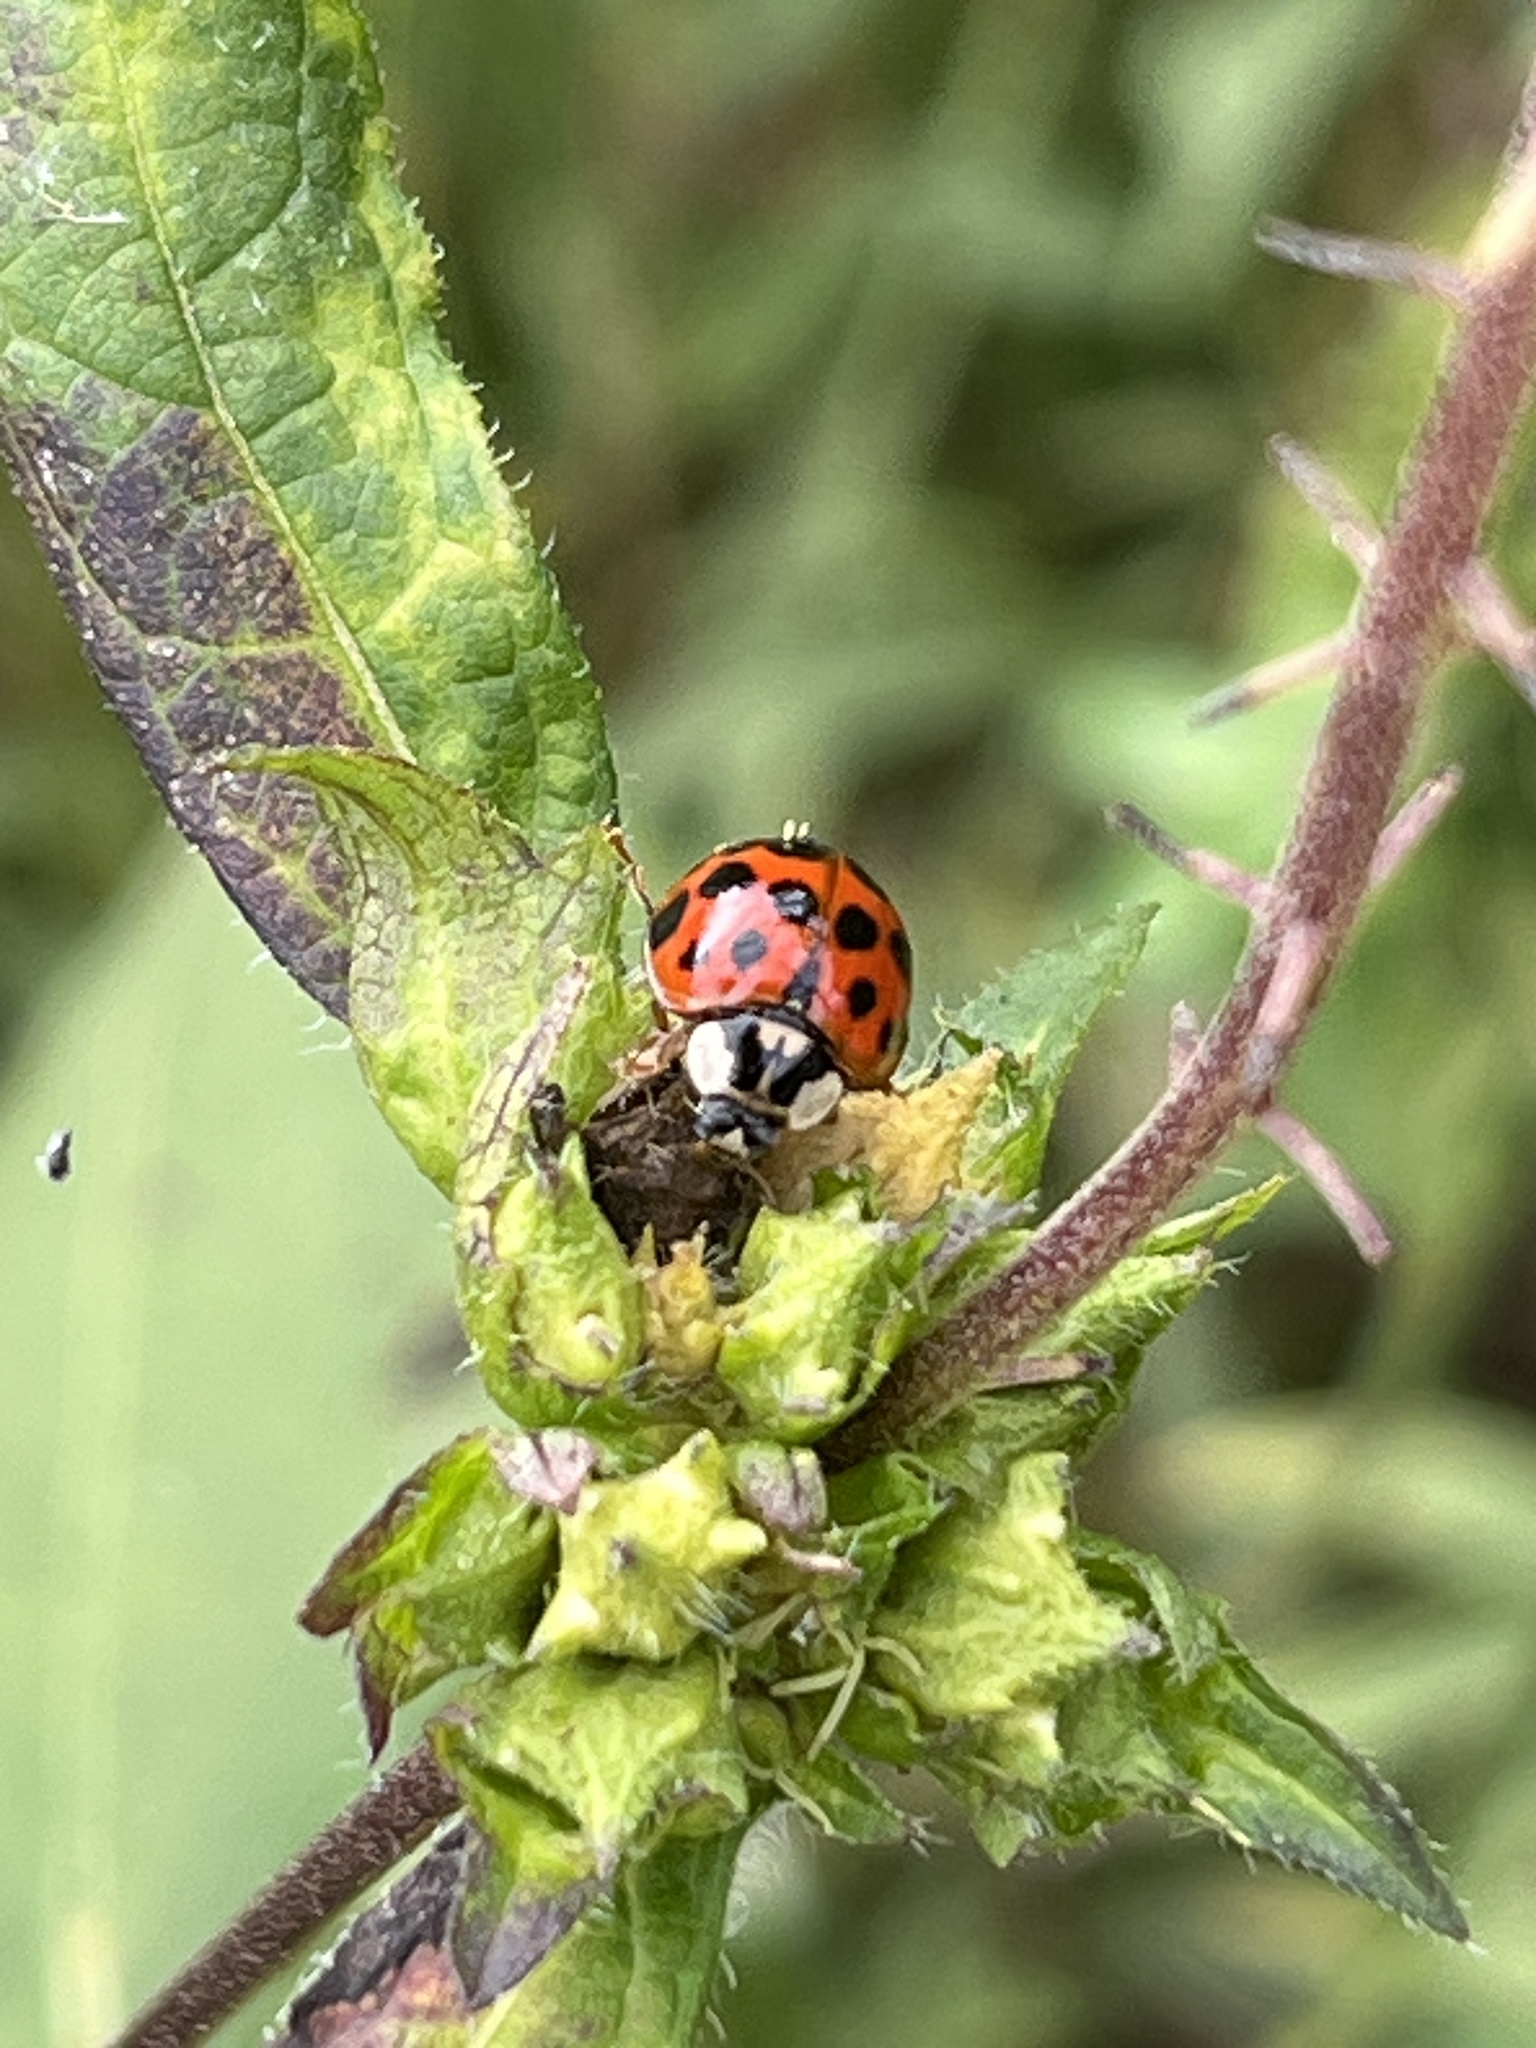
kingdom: Animalia
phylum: Arthropoda
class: Insecta
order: Coleoptera
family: Coccinellidae
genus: Harmonia
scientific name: Harmonia axyridis
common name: Harlequin ladybird
